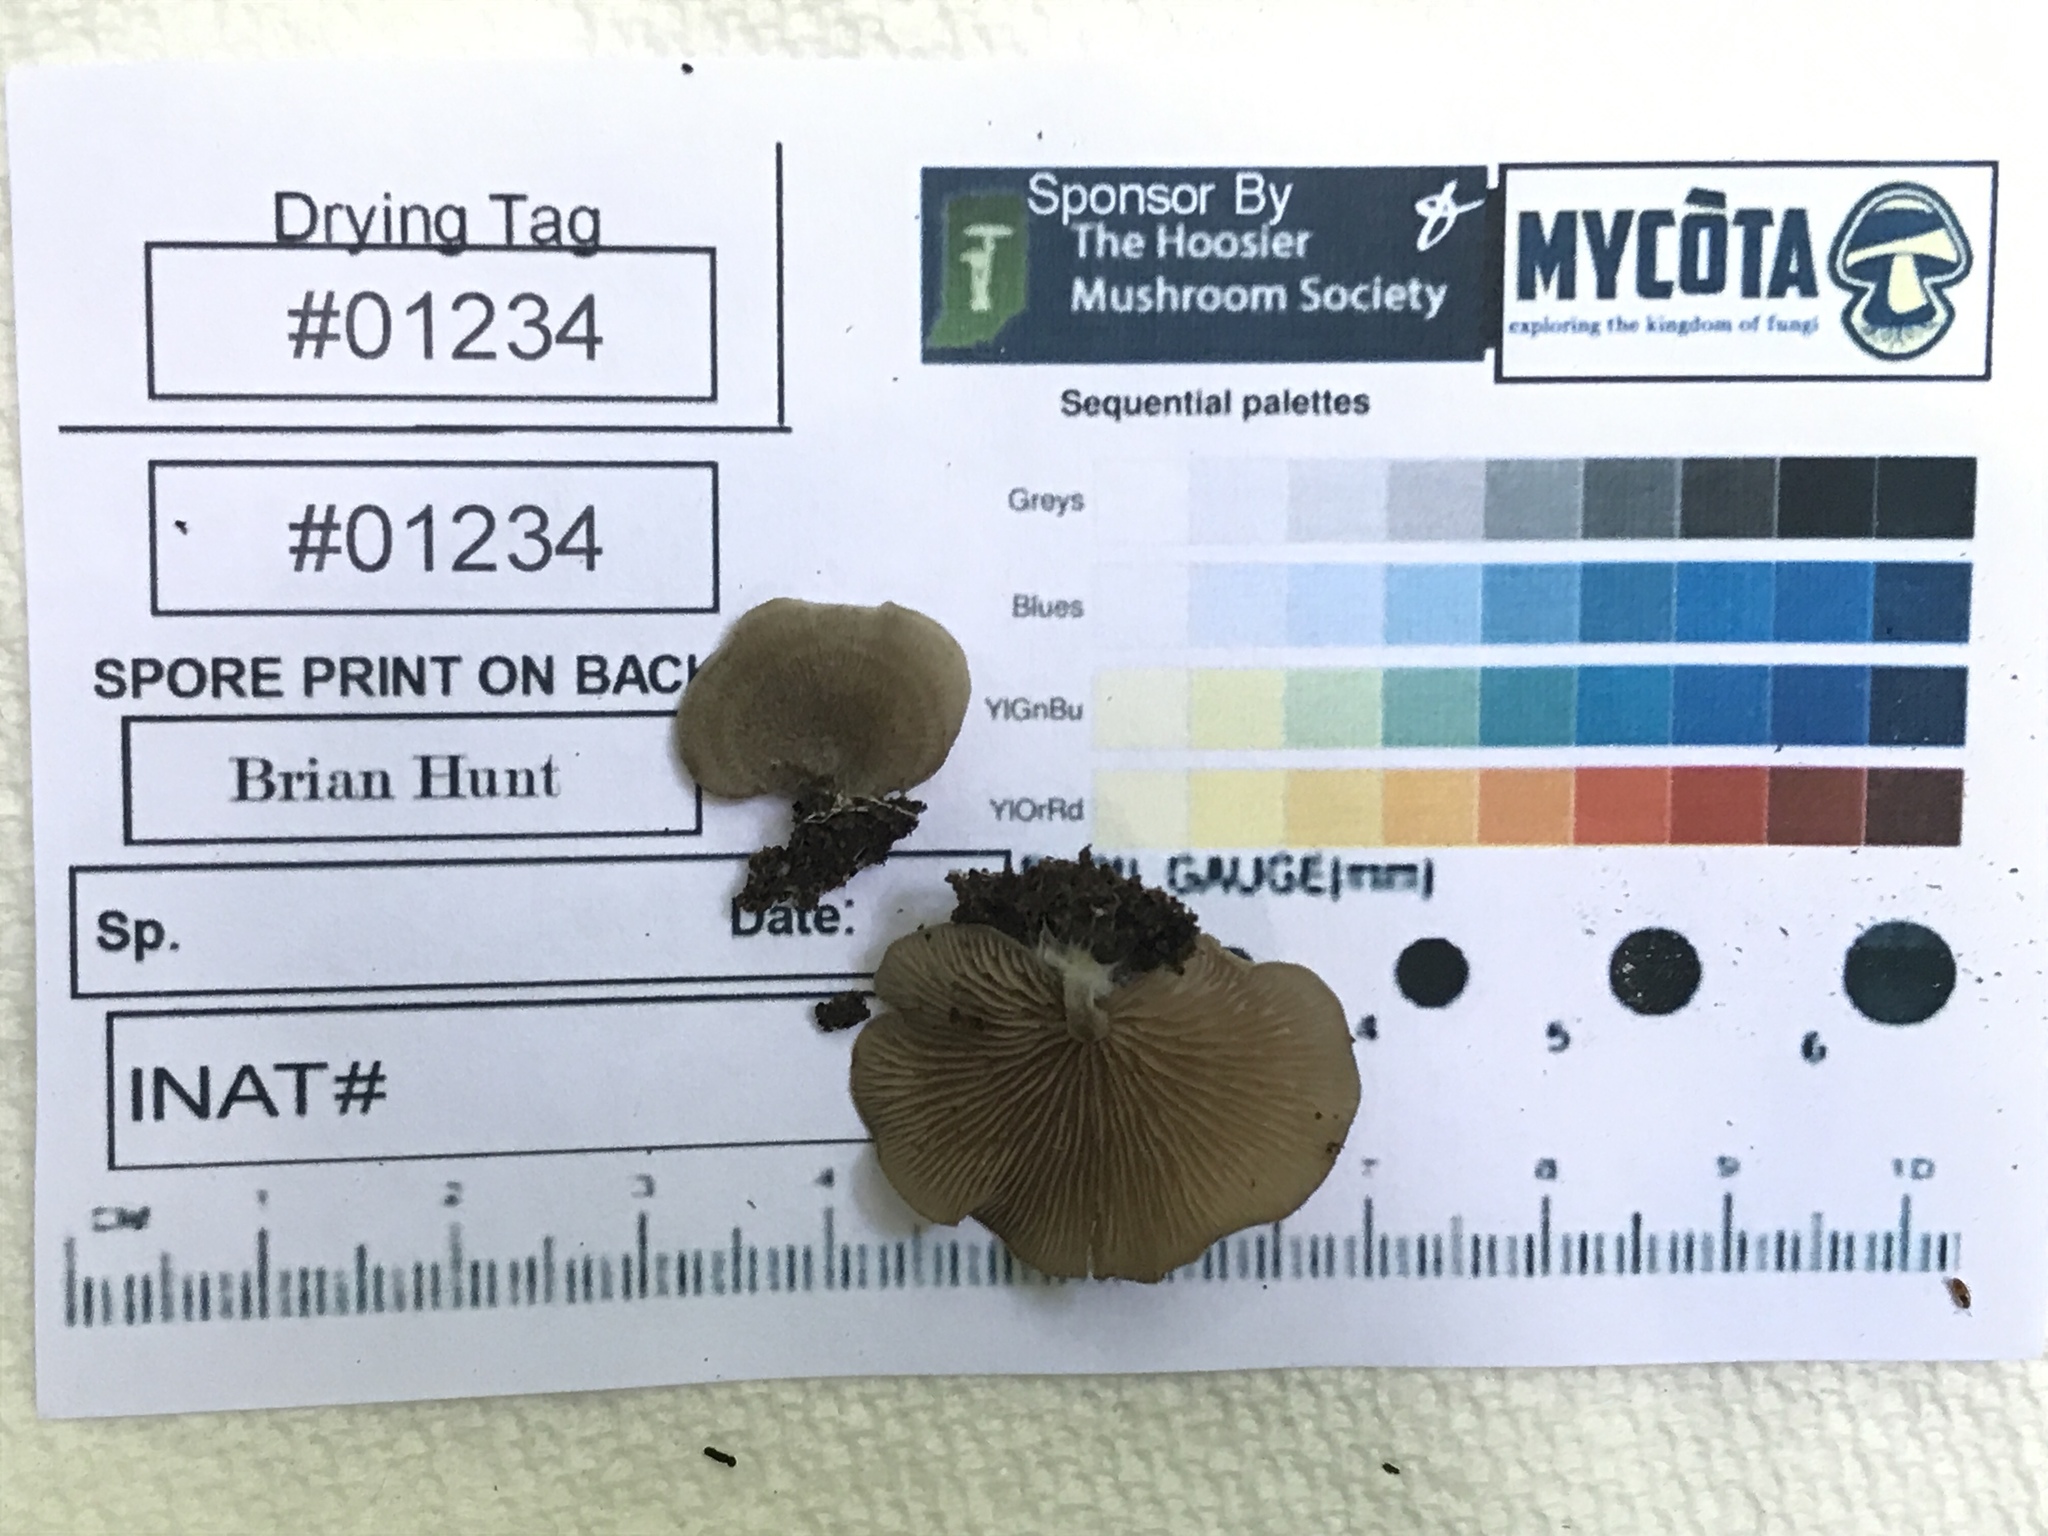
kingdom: Fungi
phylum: Basidiomycota
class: Agaricomycetes
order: Agaricales
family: Entolomataceae
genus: Entoloma
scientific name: Entoloma undatum
